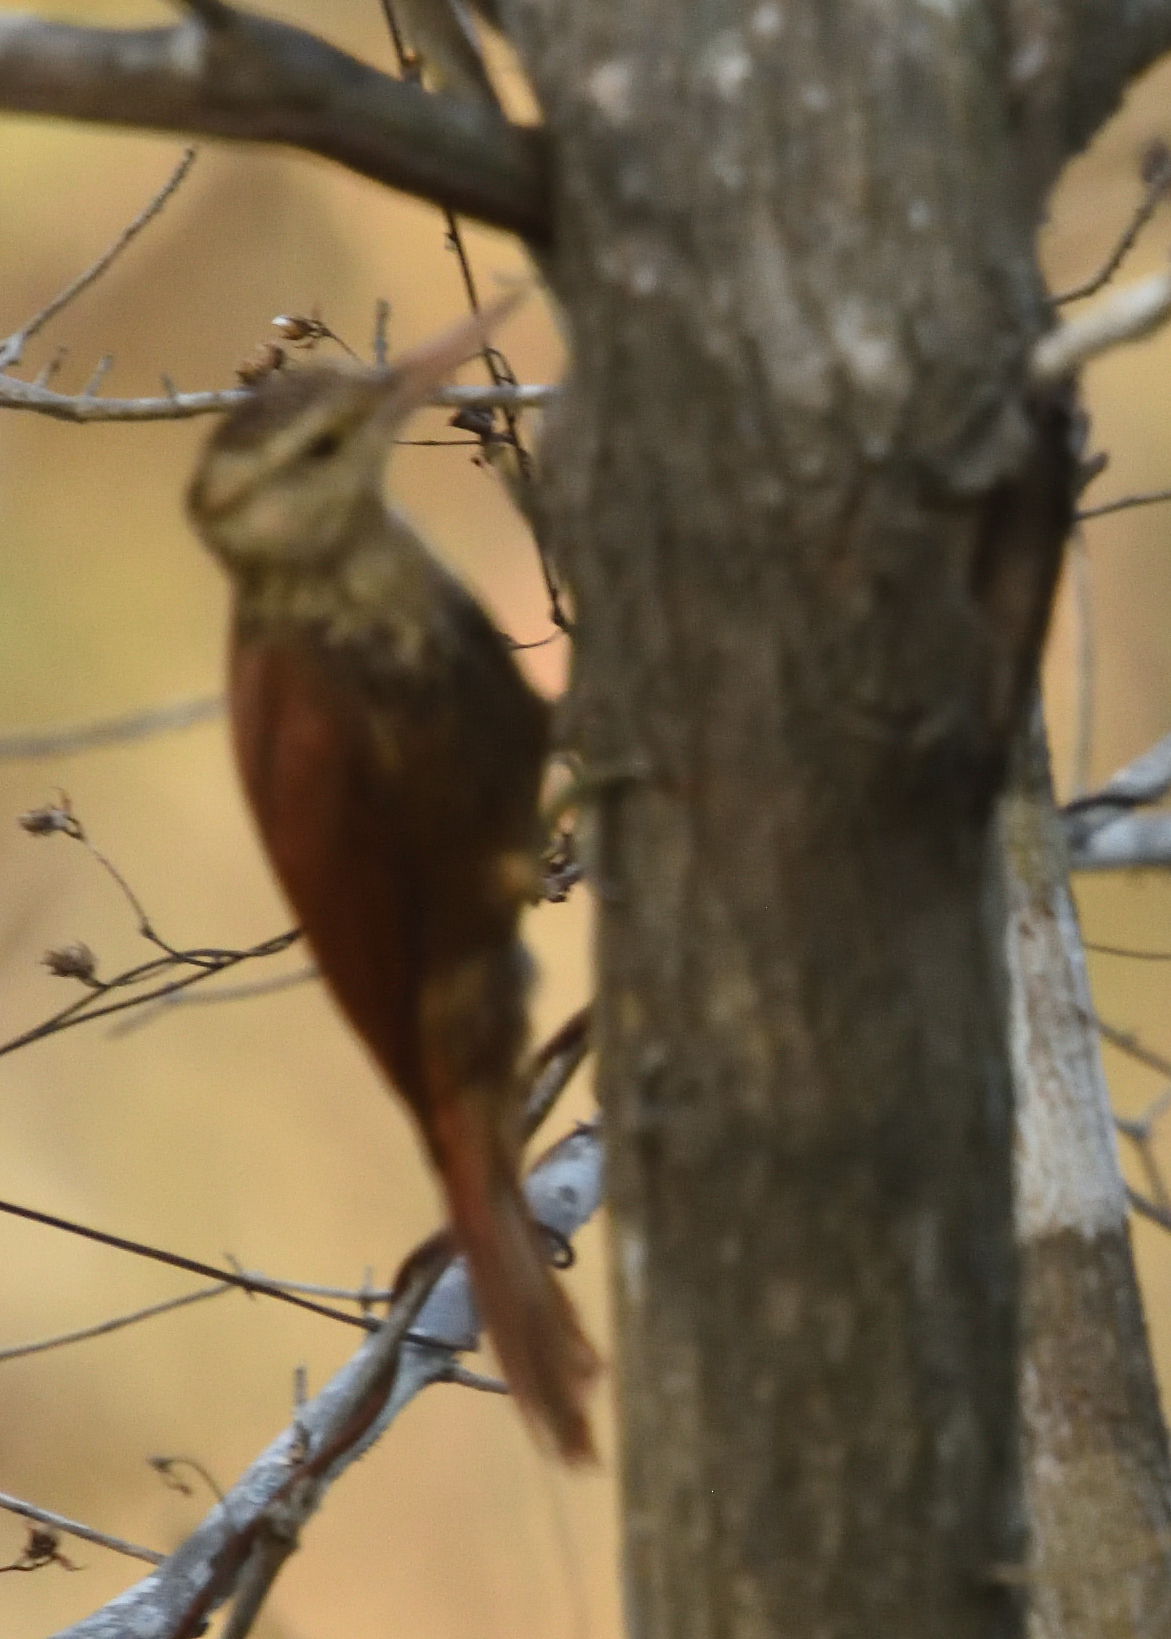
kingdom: Animalia
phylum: Chordata
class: Aves
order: Passeriformes
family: Furnariidae
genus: Xiphorhynchus
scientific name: Xiphorhynchus picus
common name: Straight-billed woodcreeper
